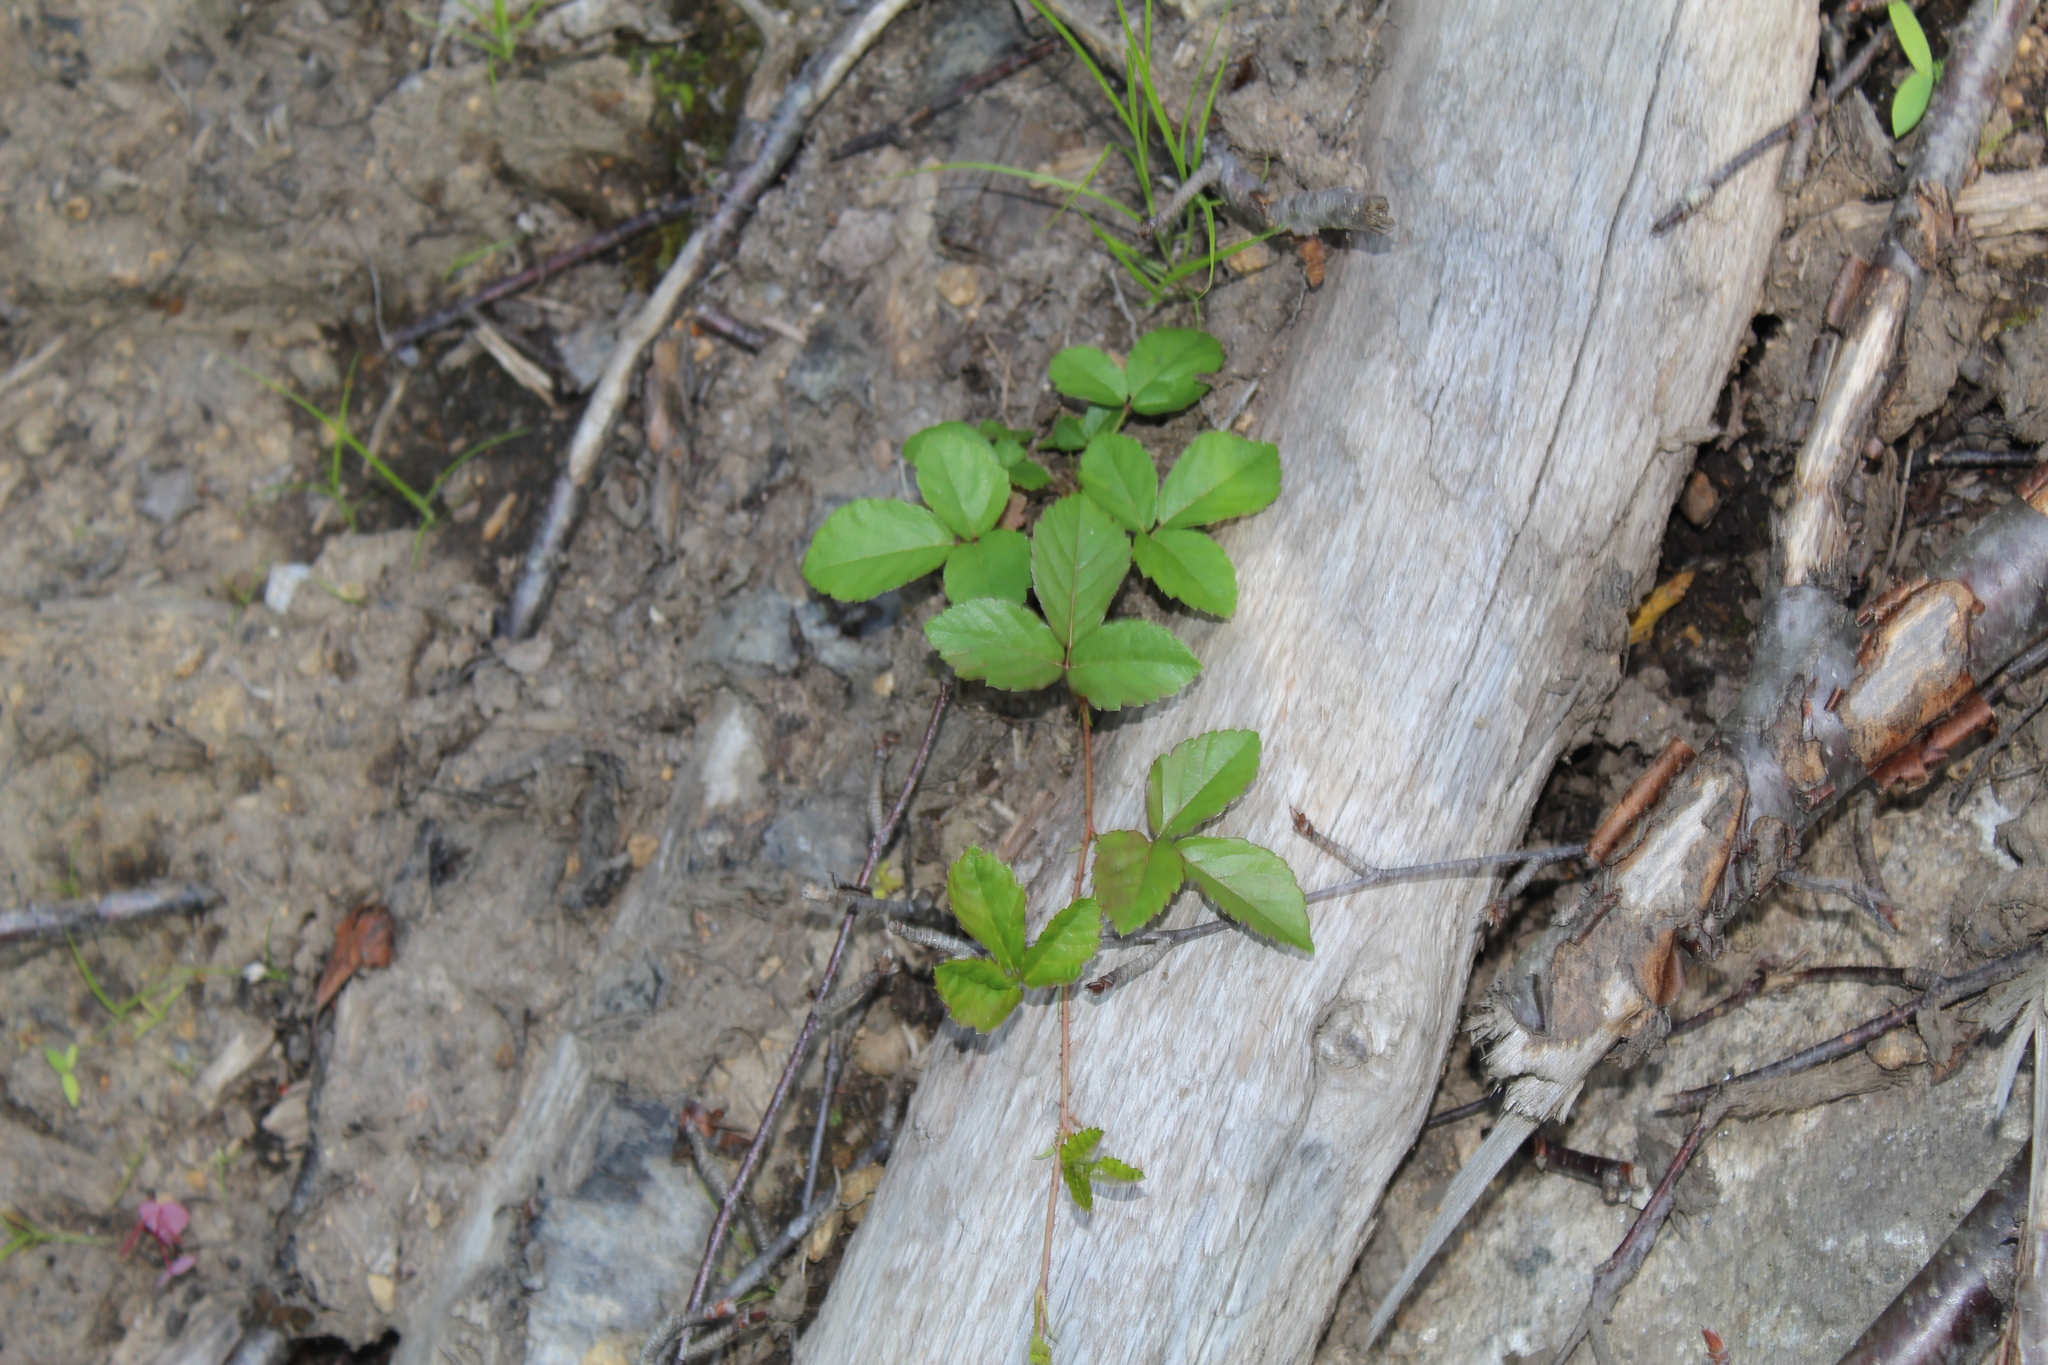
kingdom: Plantae
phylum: Tracheophyta
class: Magnoliopsida
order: Rosales
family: Rosaceae
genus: Rubus
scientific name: Rubus hispidus
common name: Running blackberry
